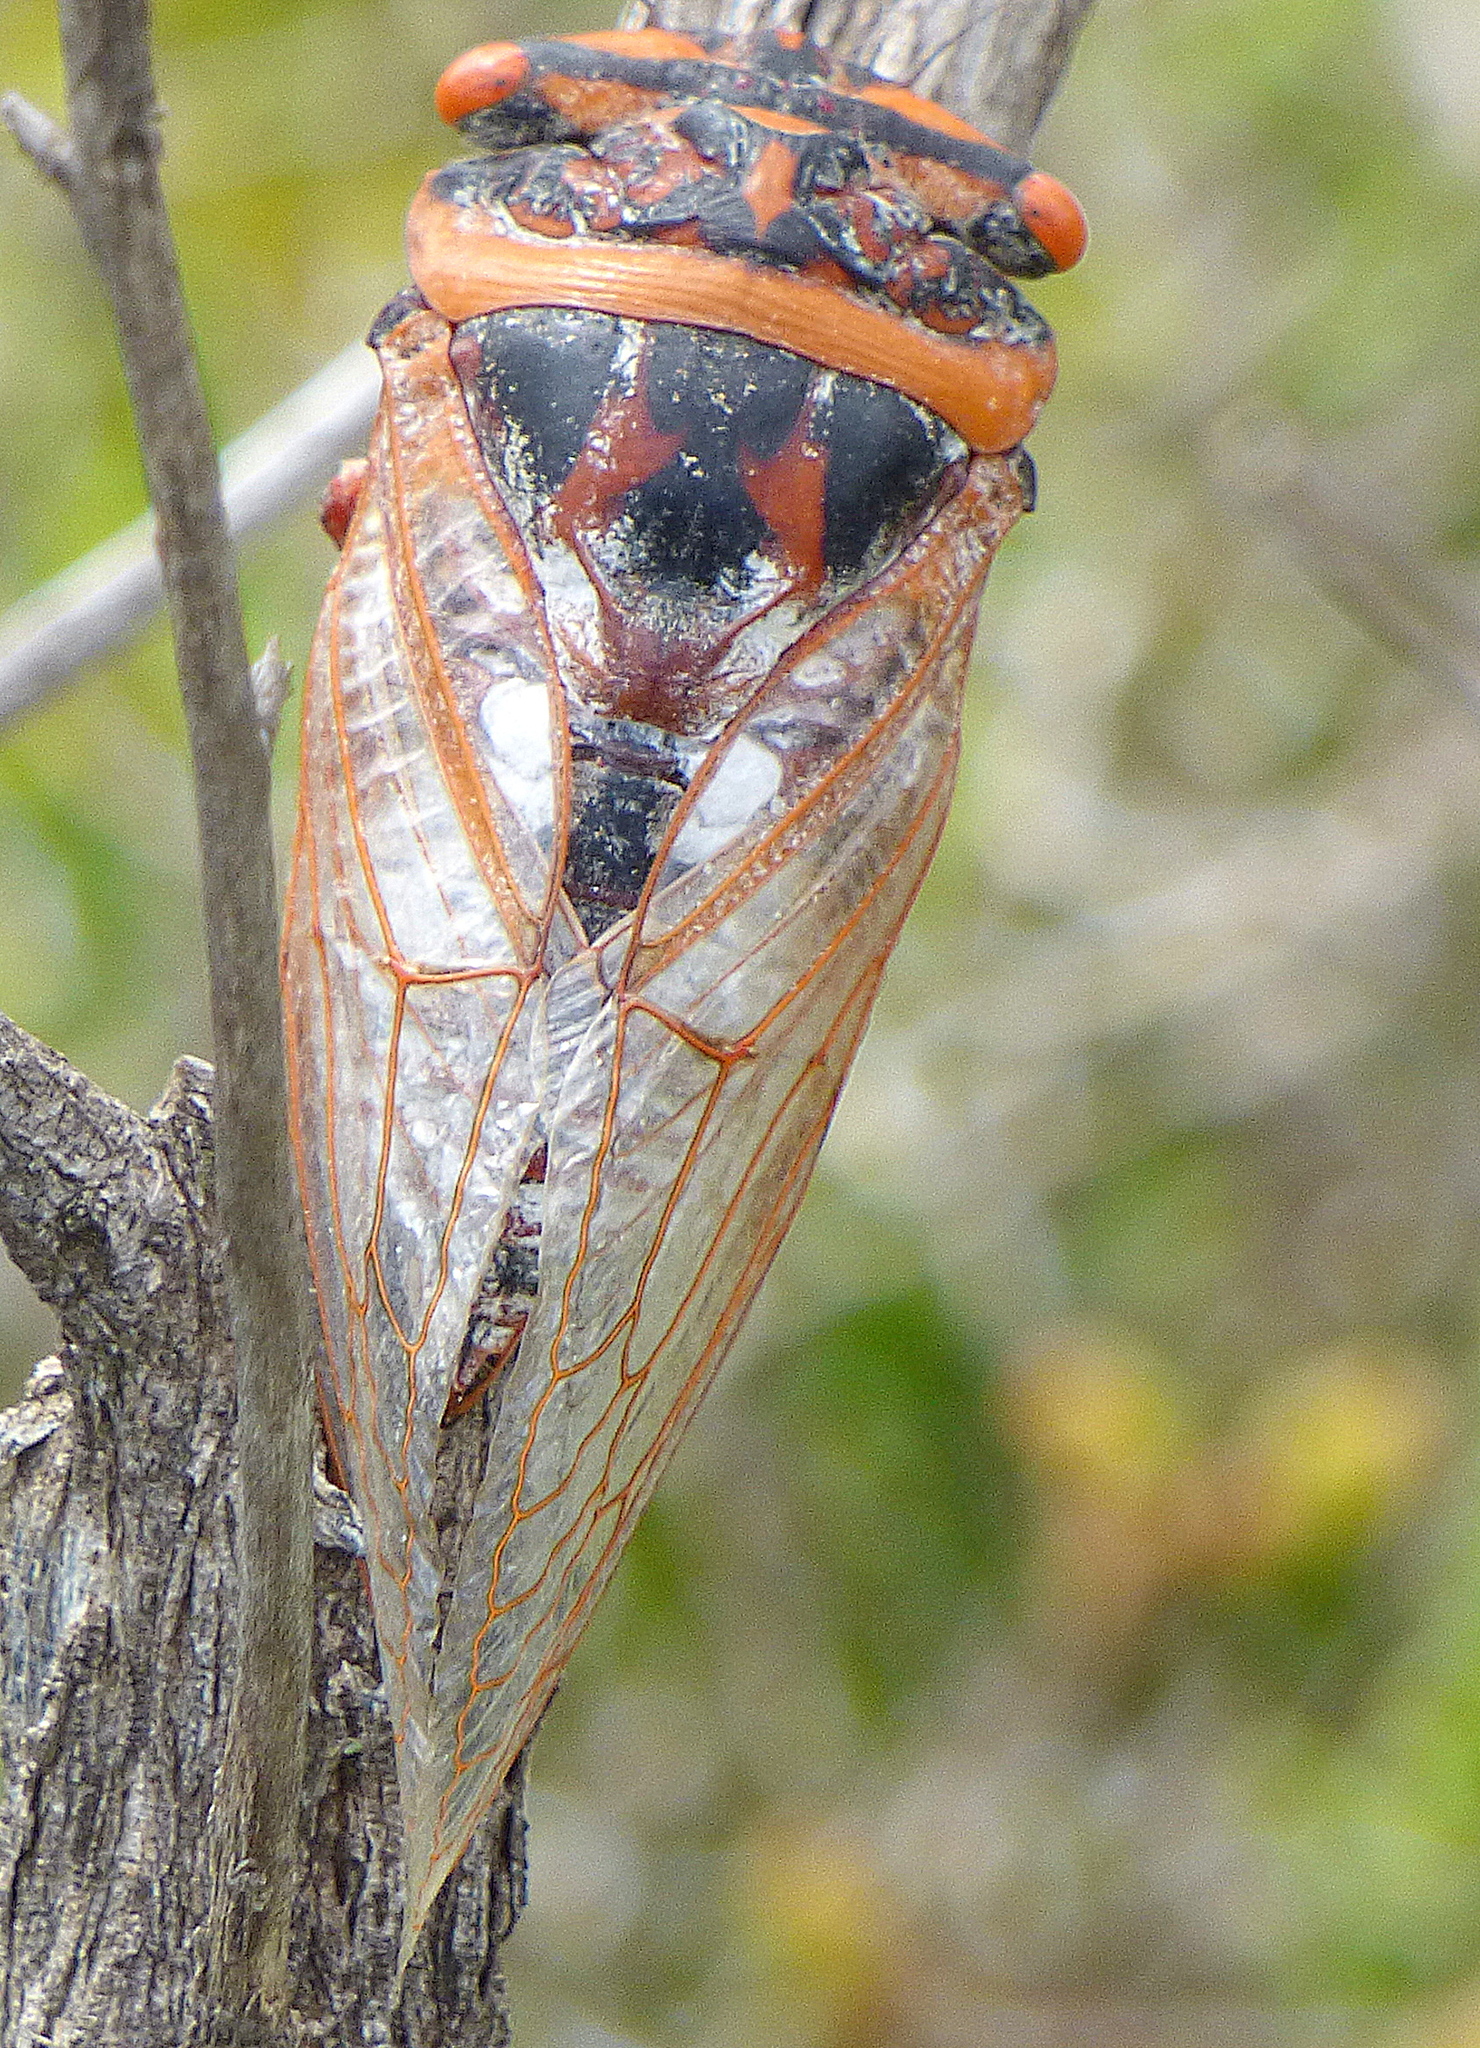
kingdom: Animalia
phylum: Arthropoda
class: Insecta
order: Hemiptera
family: Cicadidae
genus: Chonosia
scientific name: Chonosia crassipennis
